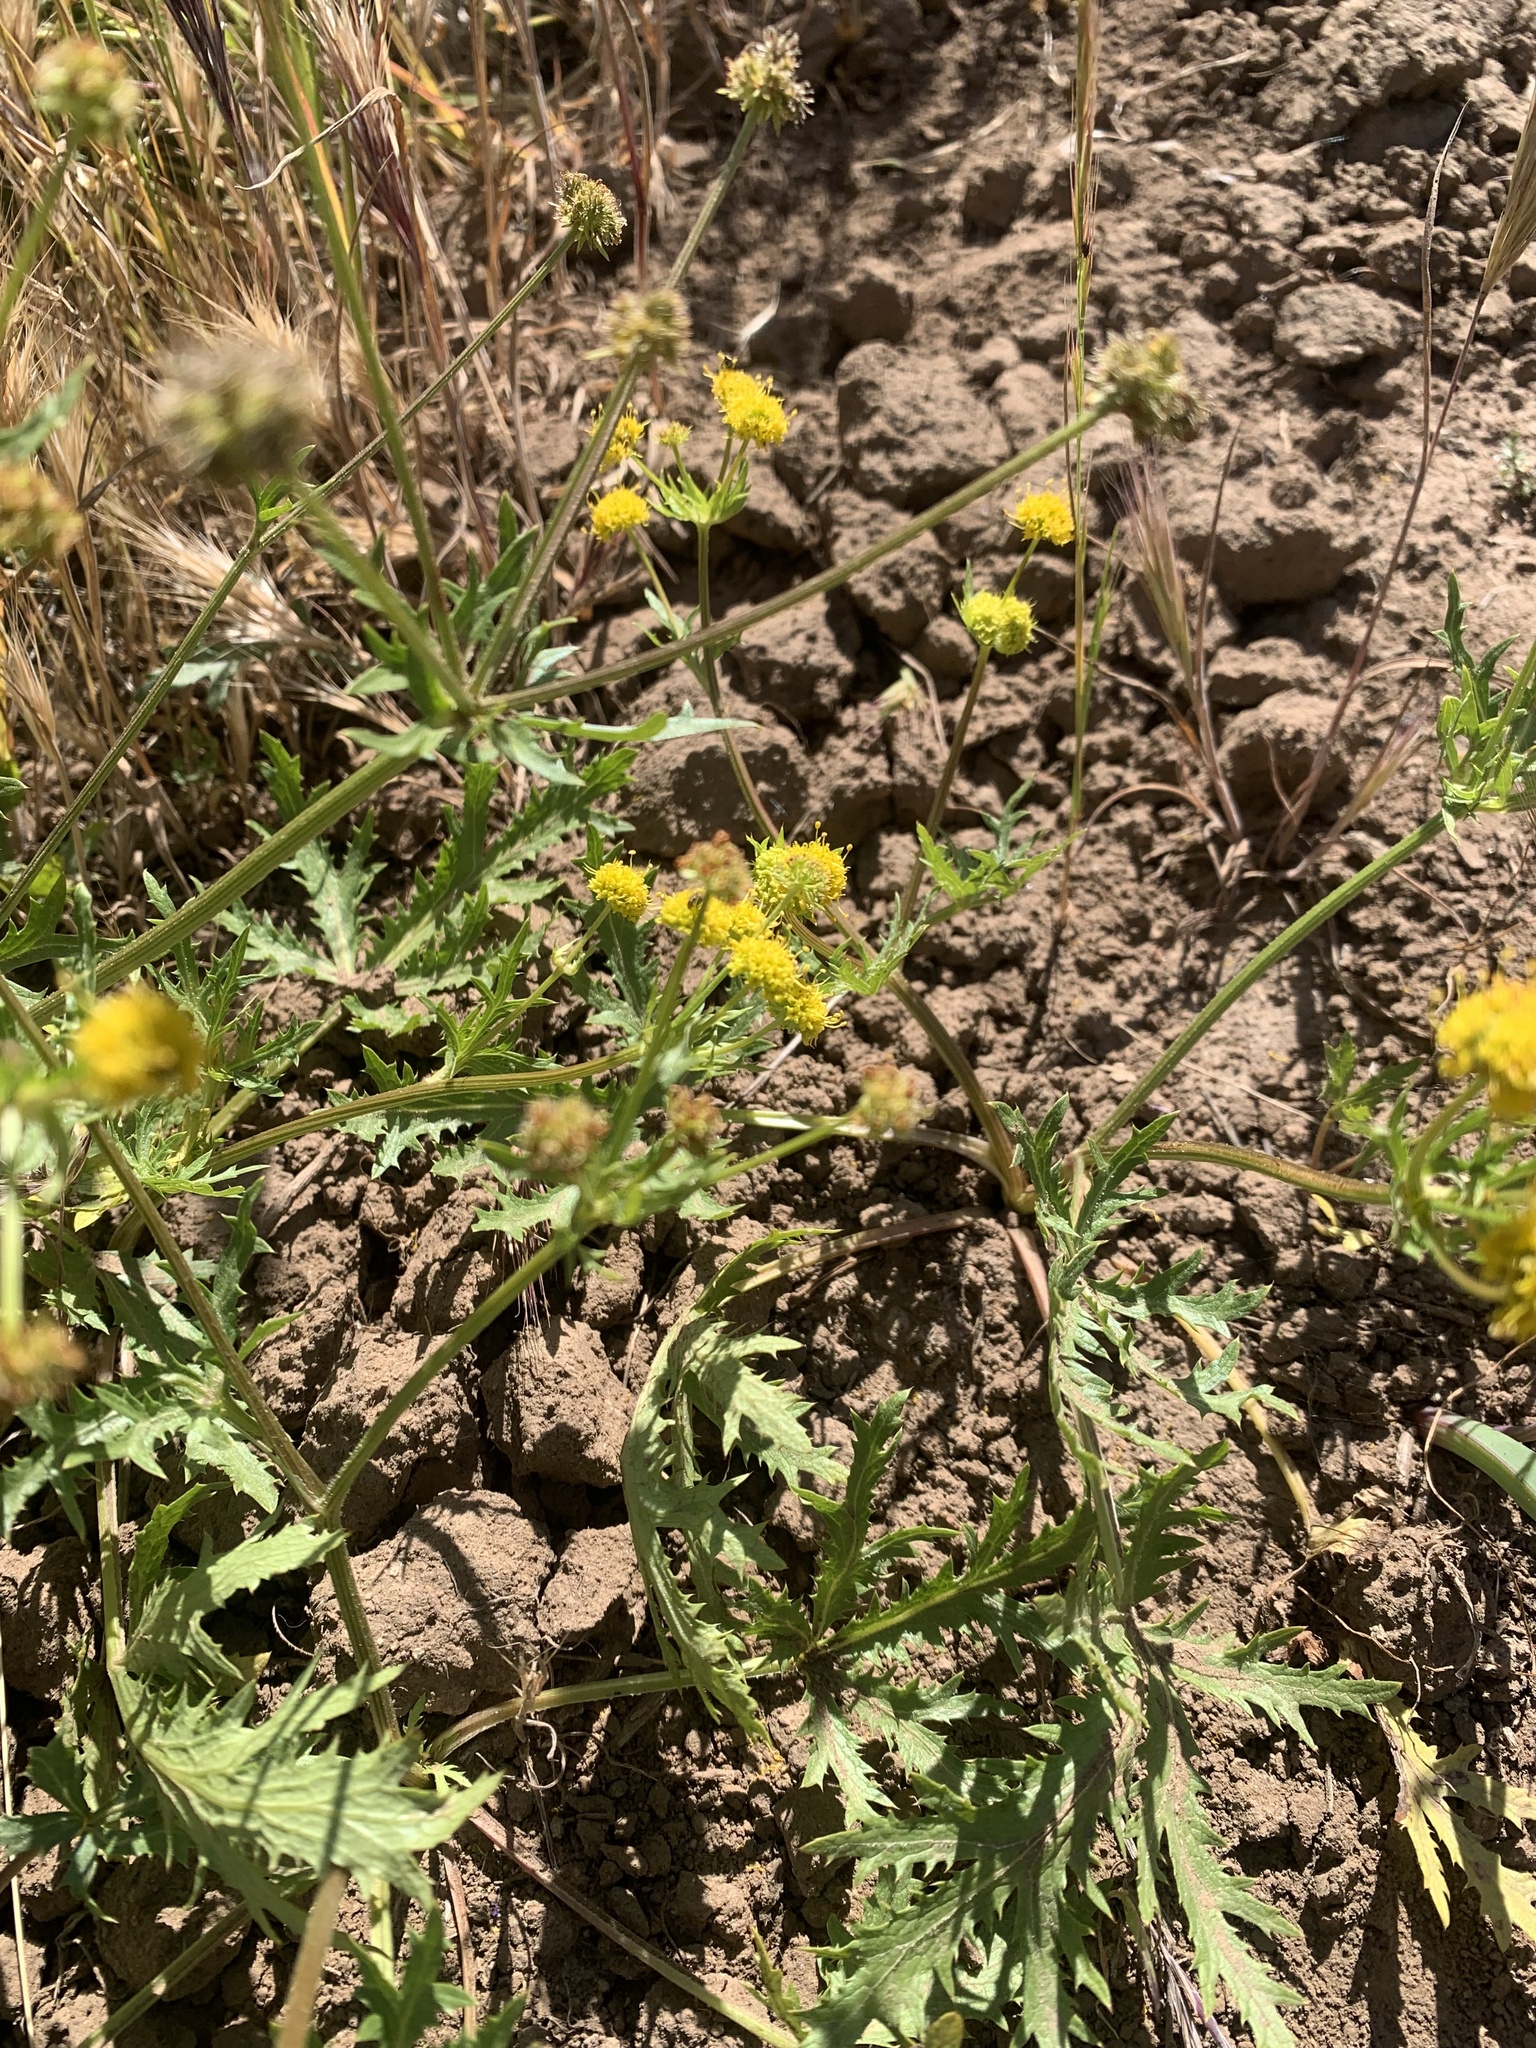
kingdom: Plantae
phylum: Tracheophyta
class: Magnoliopsida
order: Apiales
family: Apiaceae
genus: Sanicula
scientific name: Sanicula arguta
